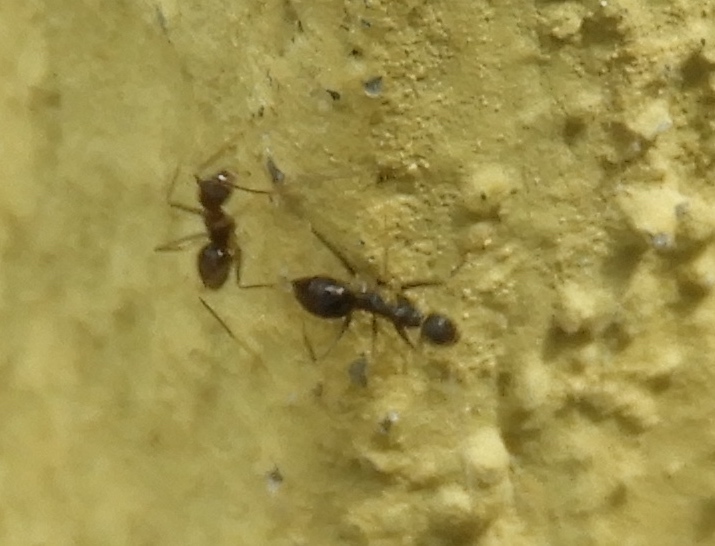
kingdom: Animalia
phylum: Arthropoda
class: Insecta
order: Hymenoptera
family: Formicidae
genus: Paratrechina
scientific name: Paratrechina longicornis
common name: Longhorned crazy ant
